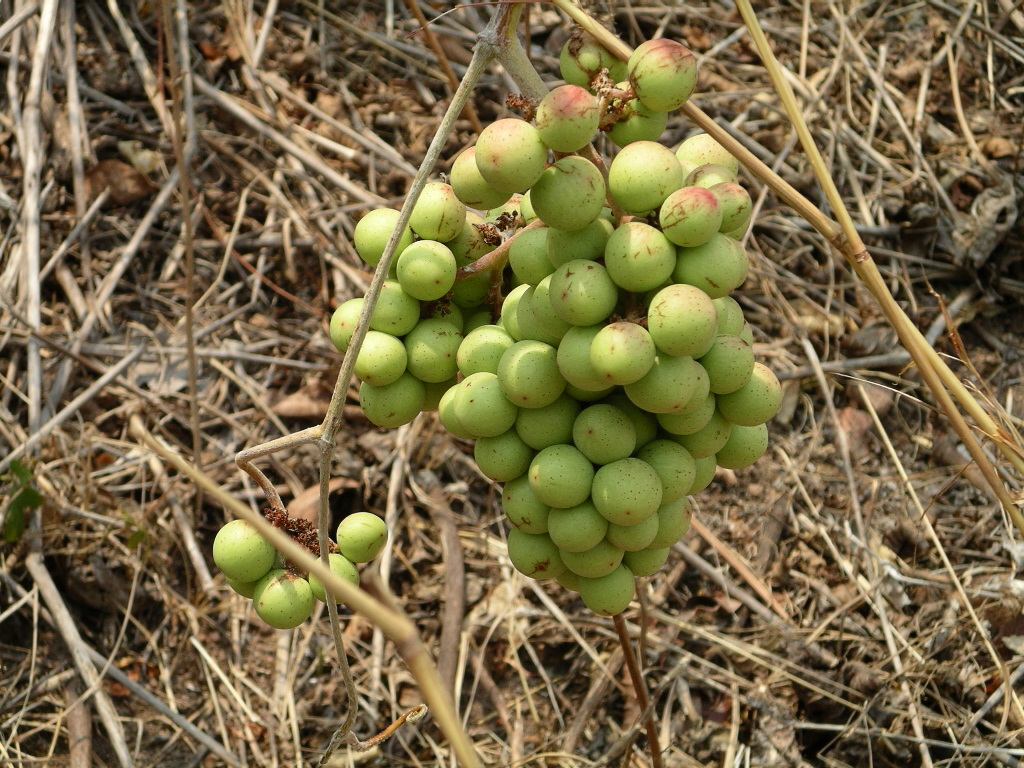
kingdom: Plantae
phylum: Tracheophyta
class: Magnoliopsida
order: Vitales
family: Vitaceae
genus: Ampelocissus
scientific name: Ampelocissus acapulcensis
